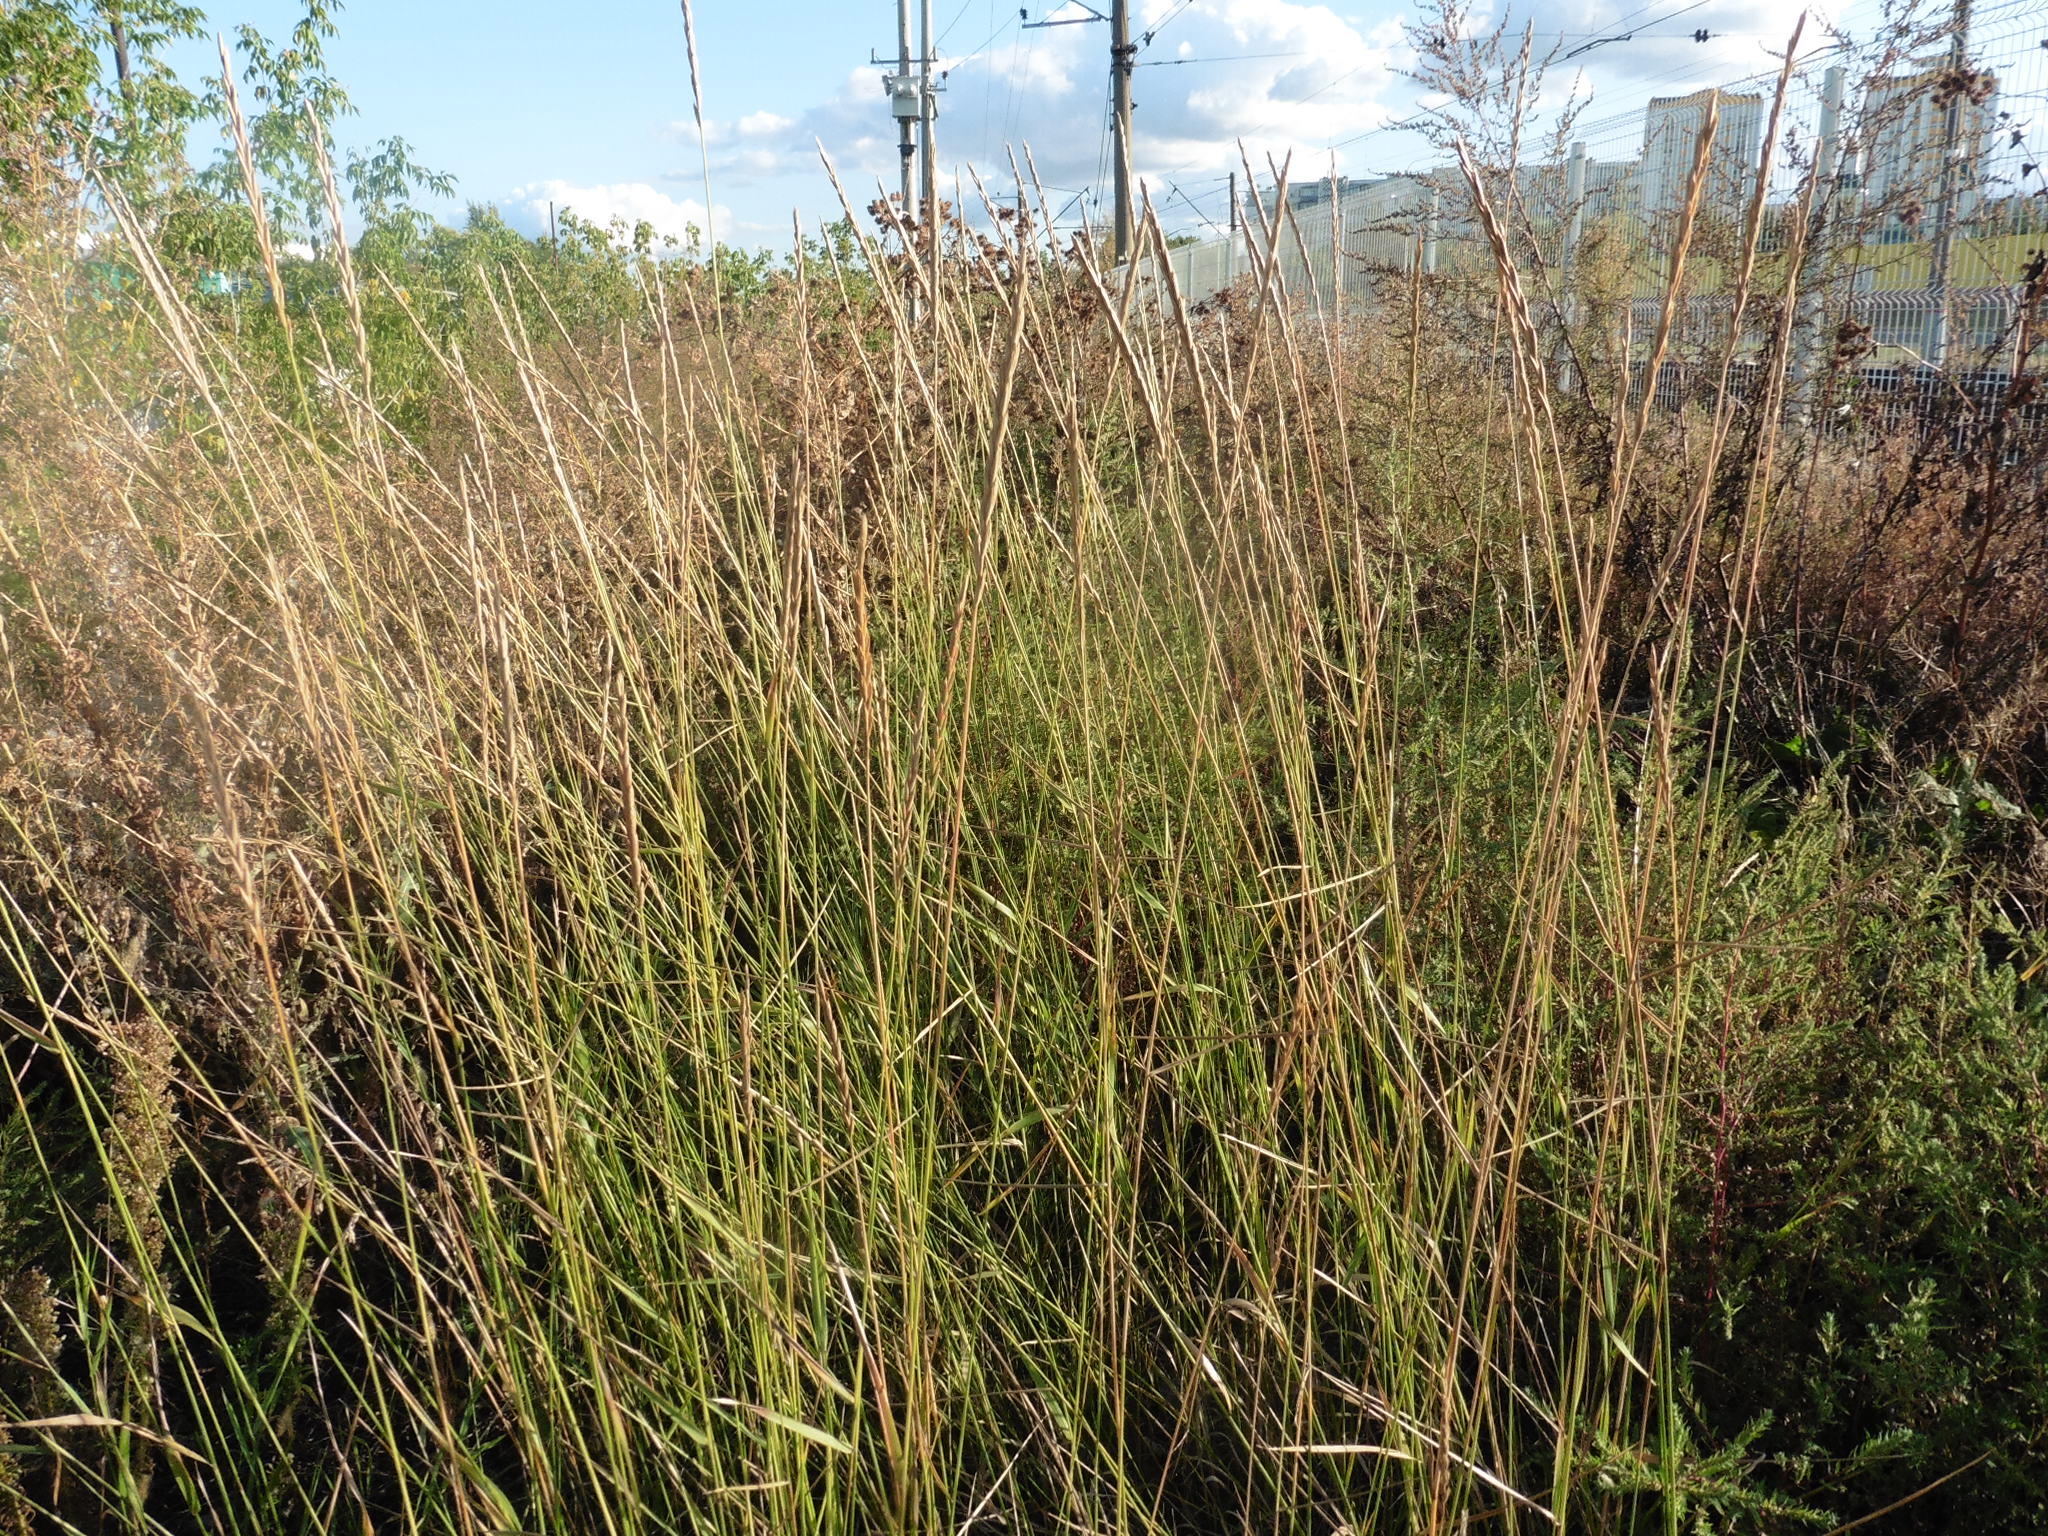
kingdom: Plantae
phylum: Tracheophyta
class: Liliopsida
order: Poales
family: Poaceae
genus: Elymus
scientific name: Elymus violaceus
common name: Arctic wheatgrass
